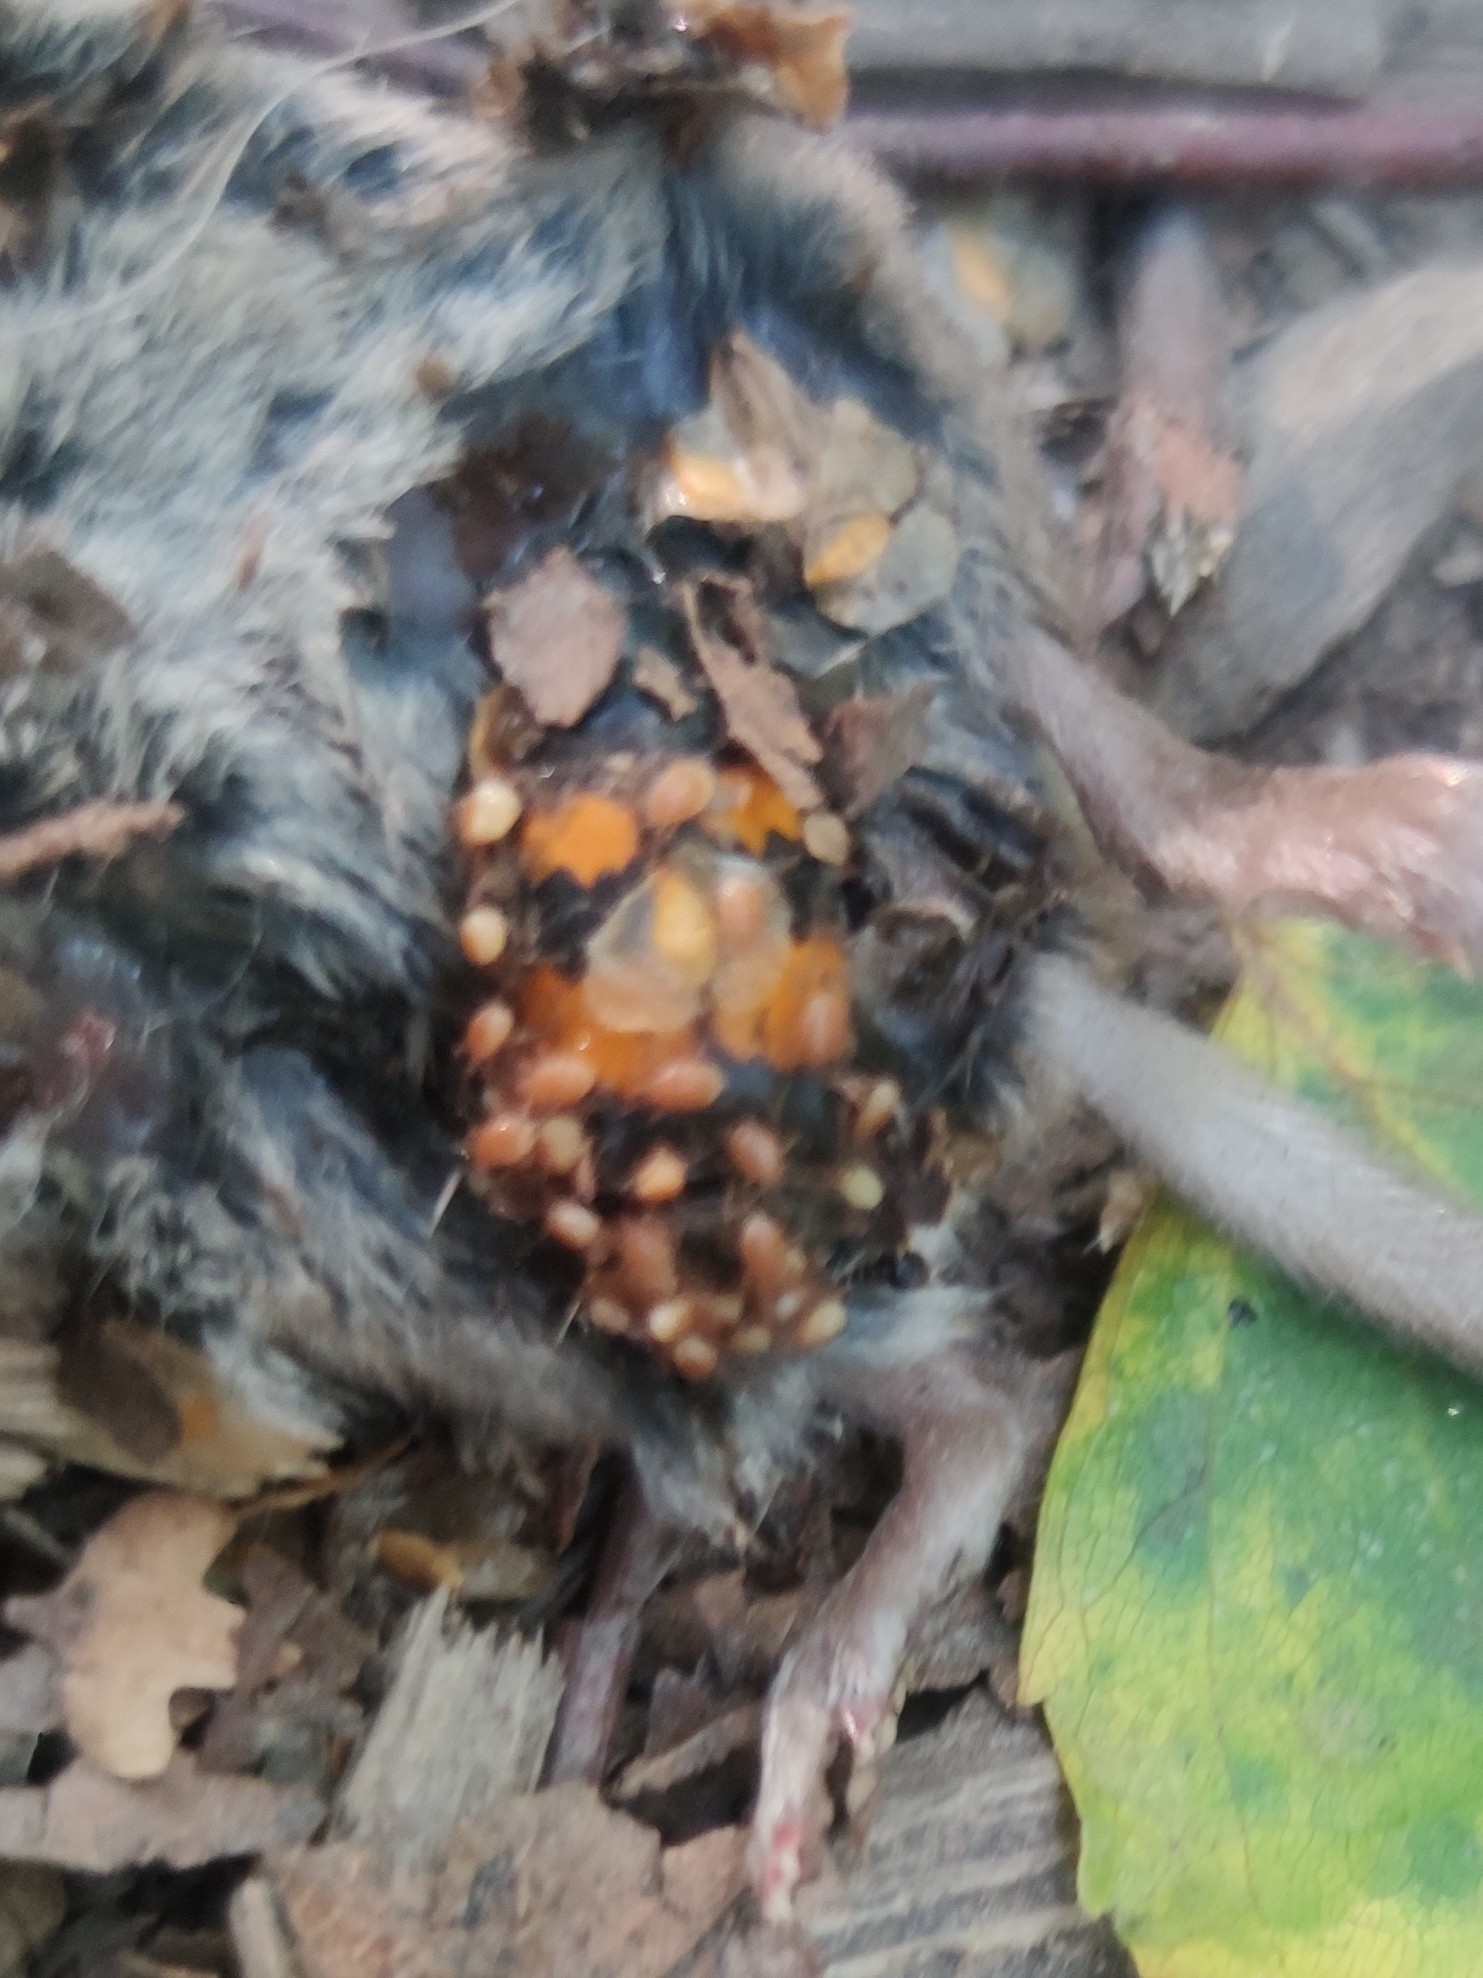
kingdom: Animalia
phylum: Arthropoda
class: Insecta
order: Coleoptera
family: Staphylinidae
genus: Nicrophorus
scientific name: Nicrophorus vespilloides
